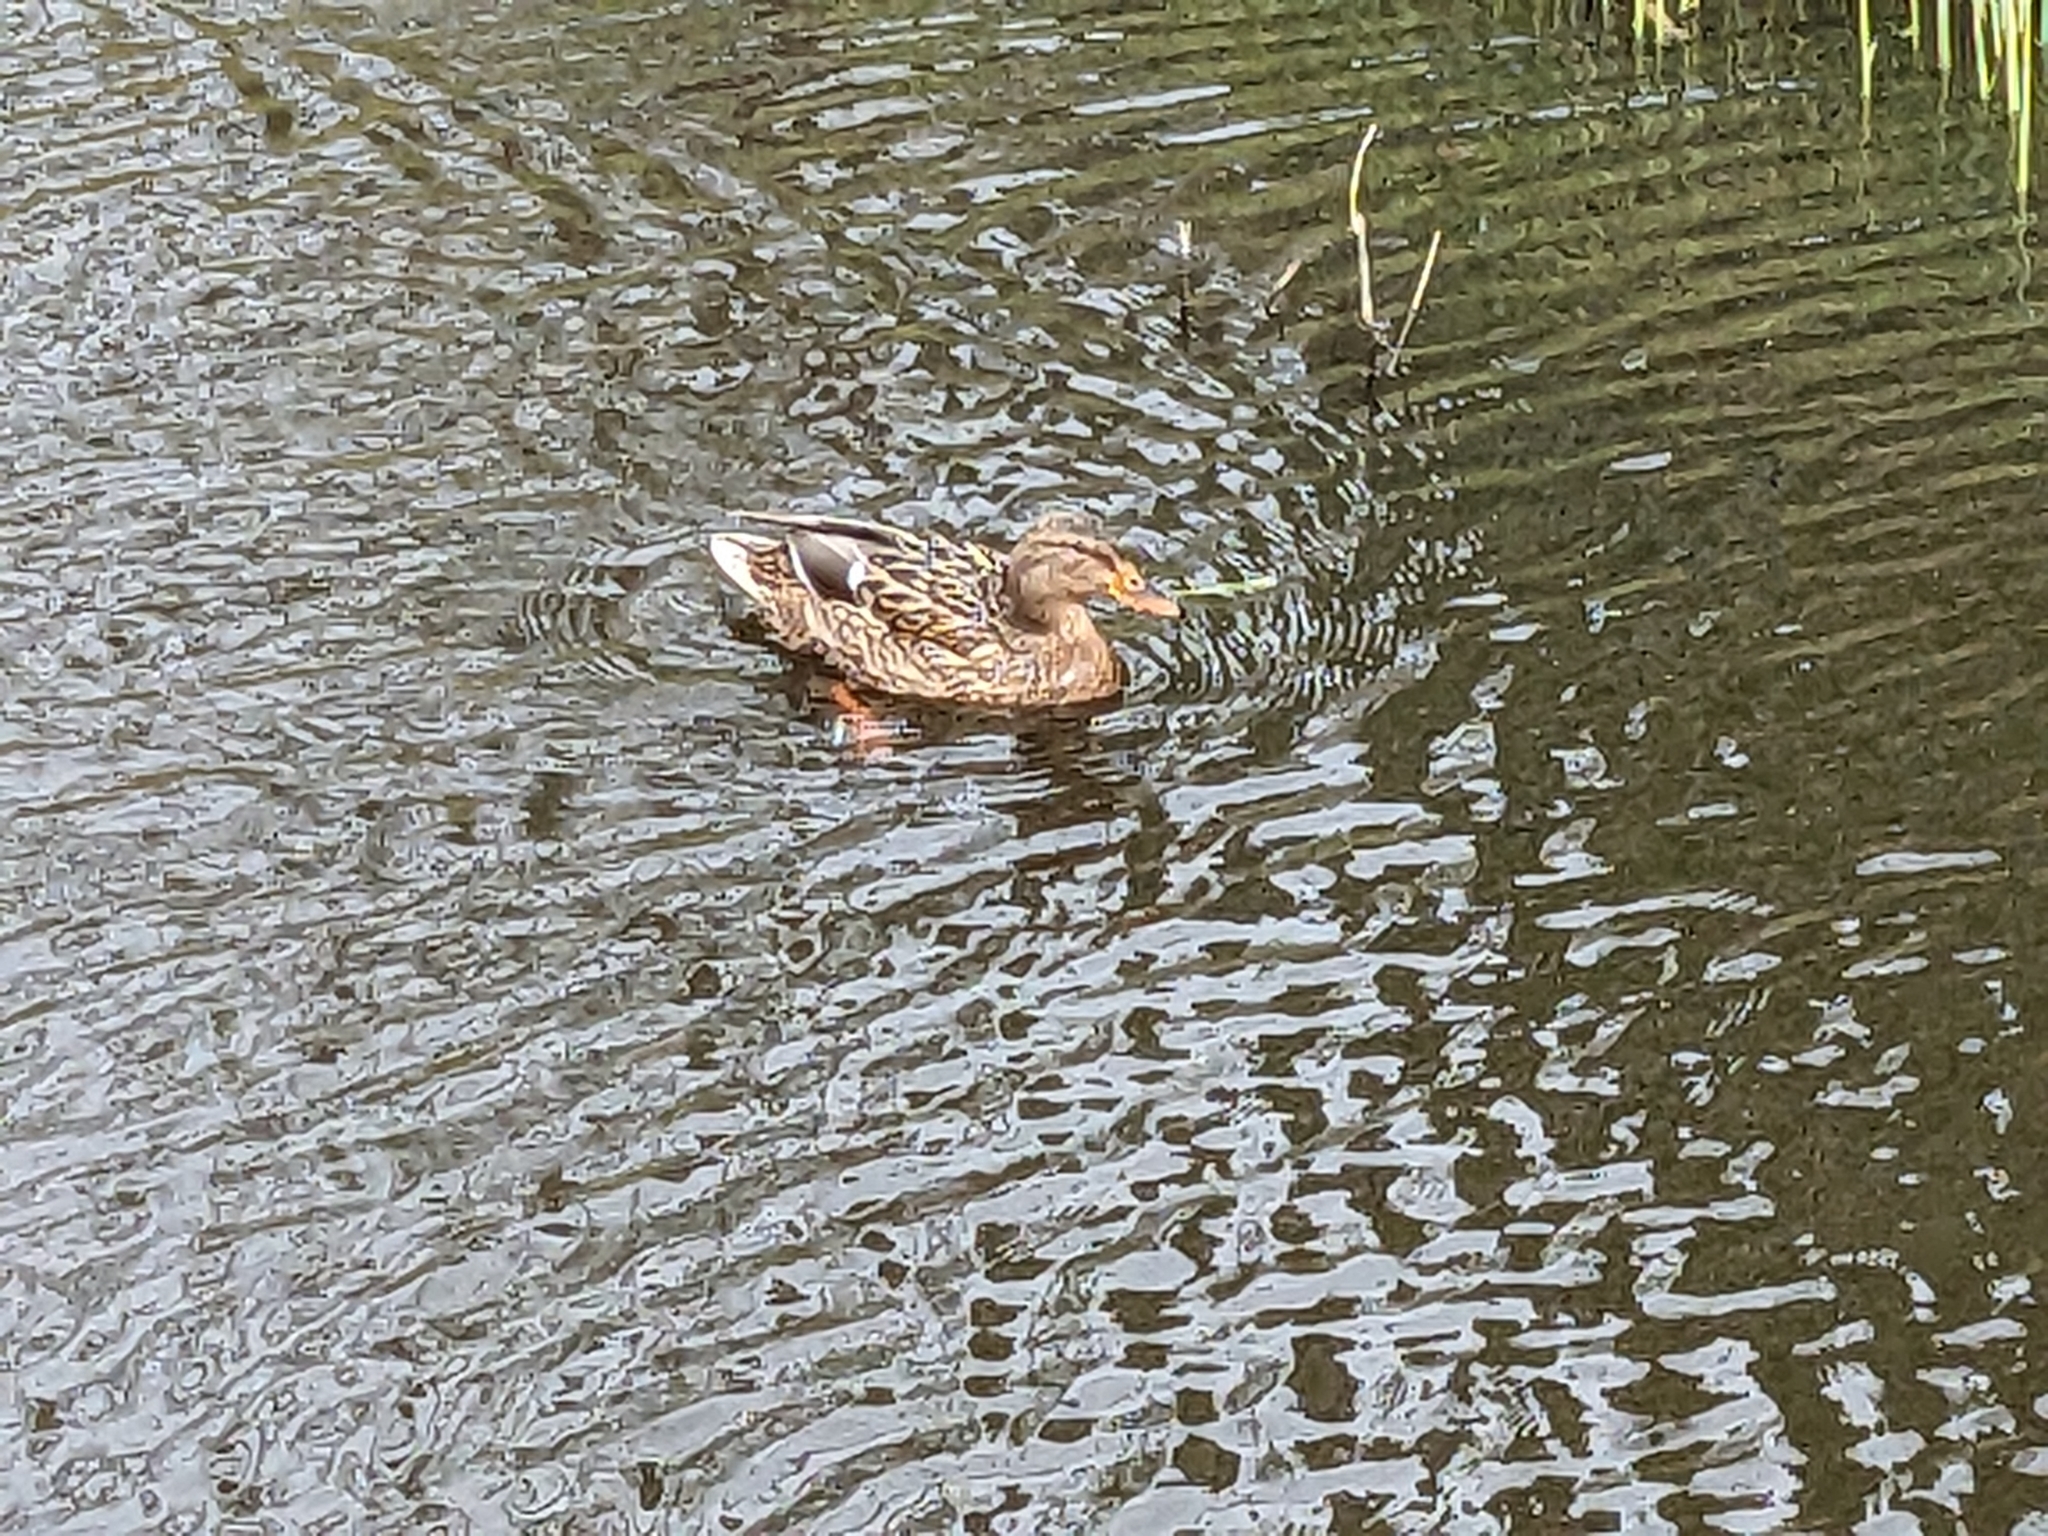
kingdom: Animalia
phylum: Chordata
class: Aves
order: Anseriformes
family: Anatidae
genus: Anas
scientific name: Anas platyrhynchos
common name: Mallard
